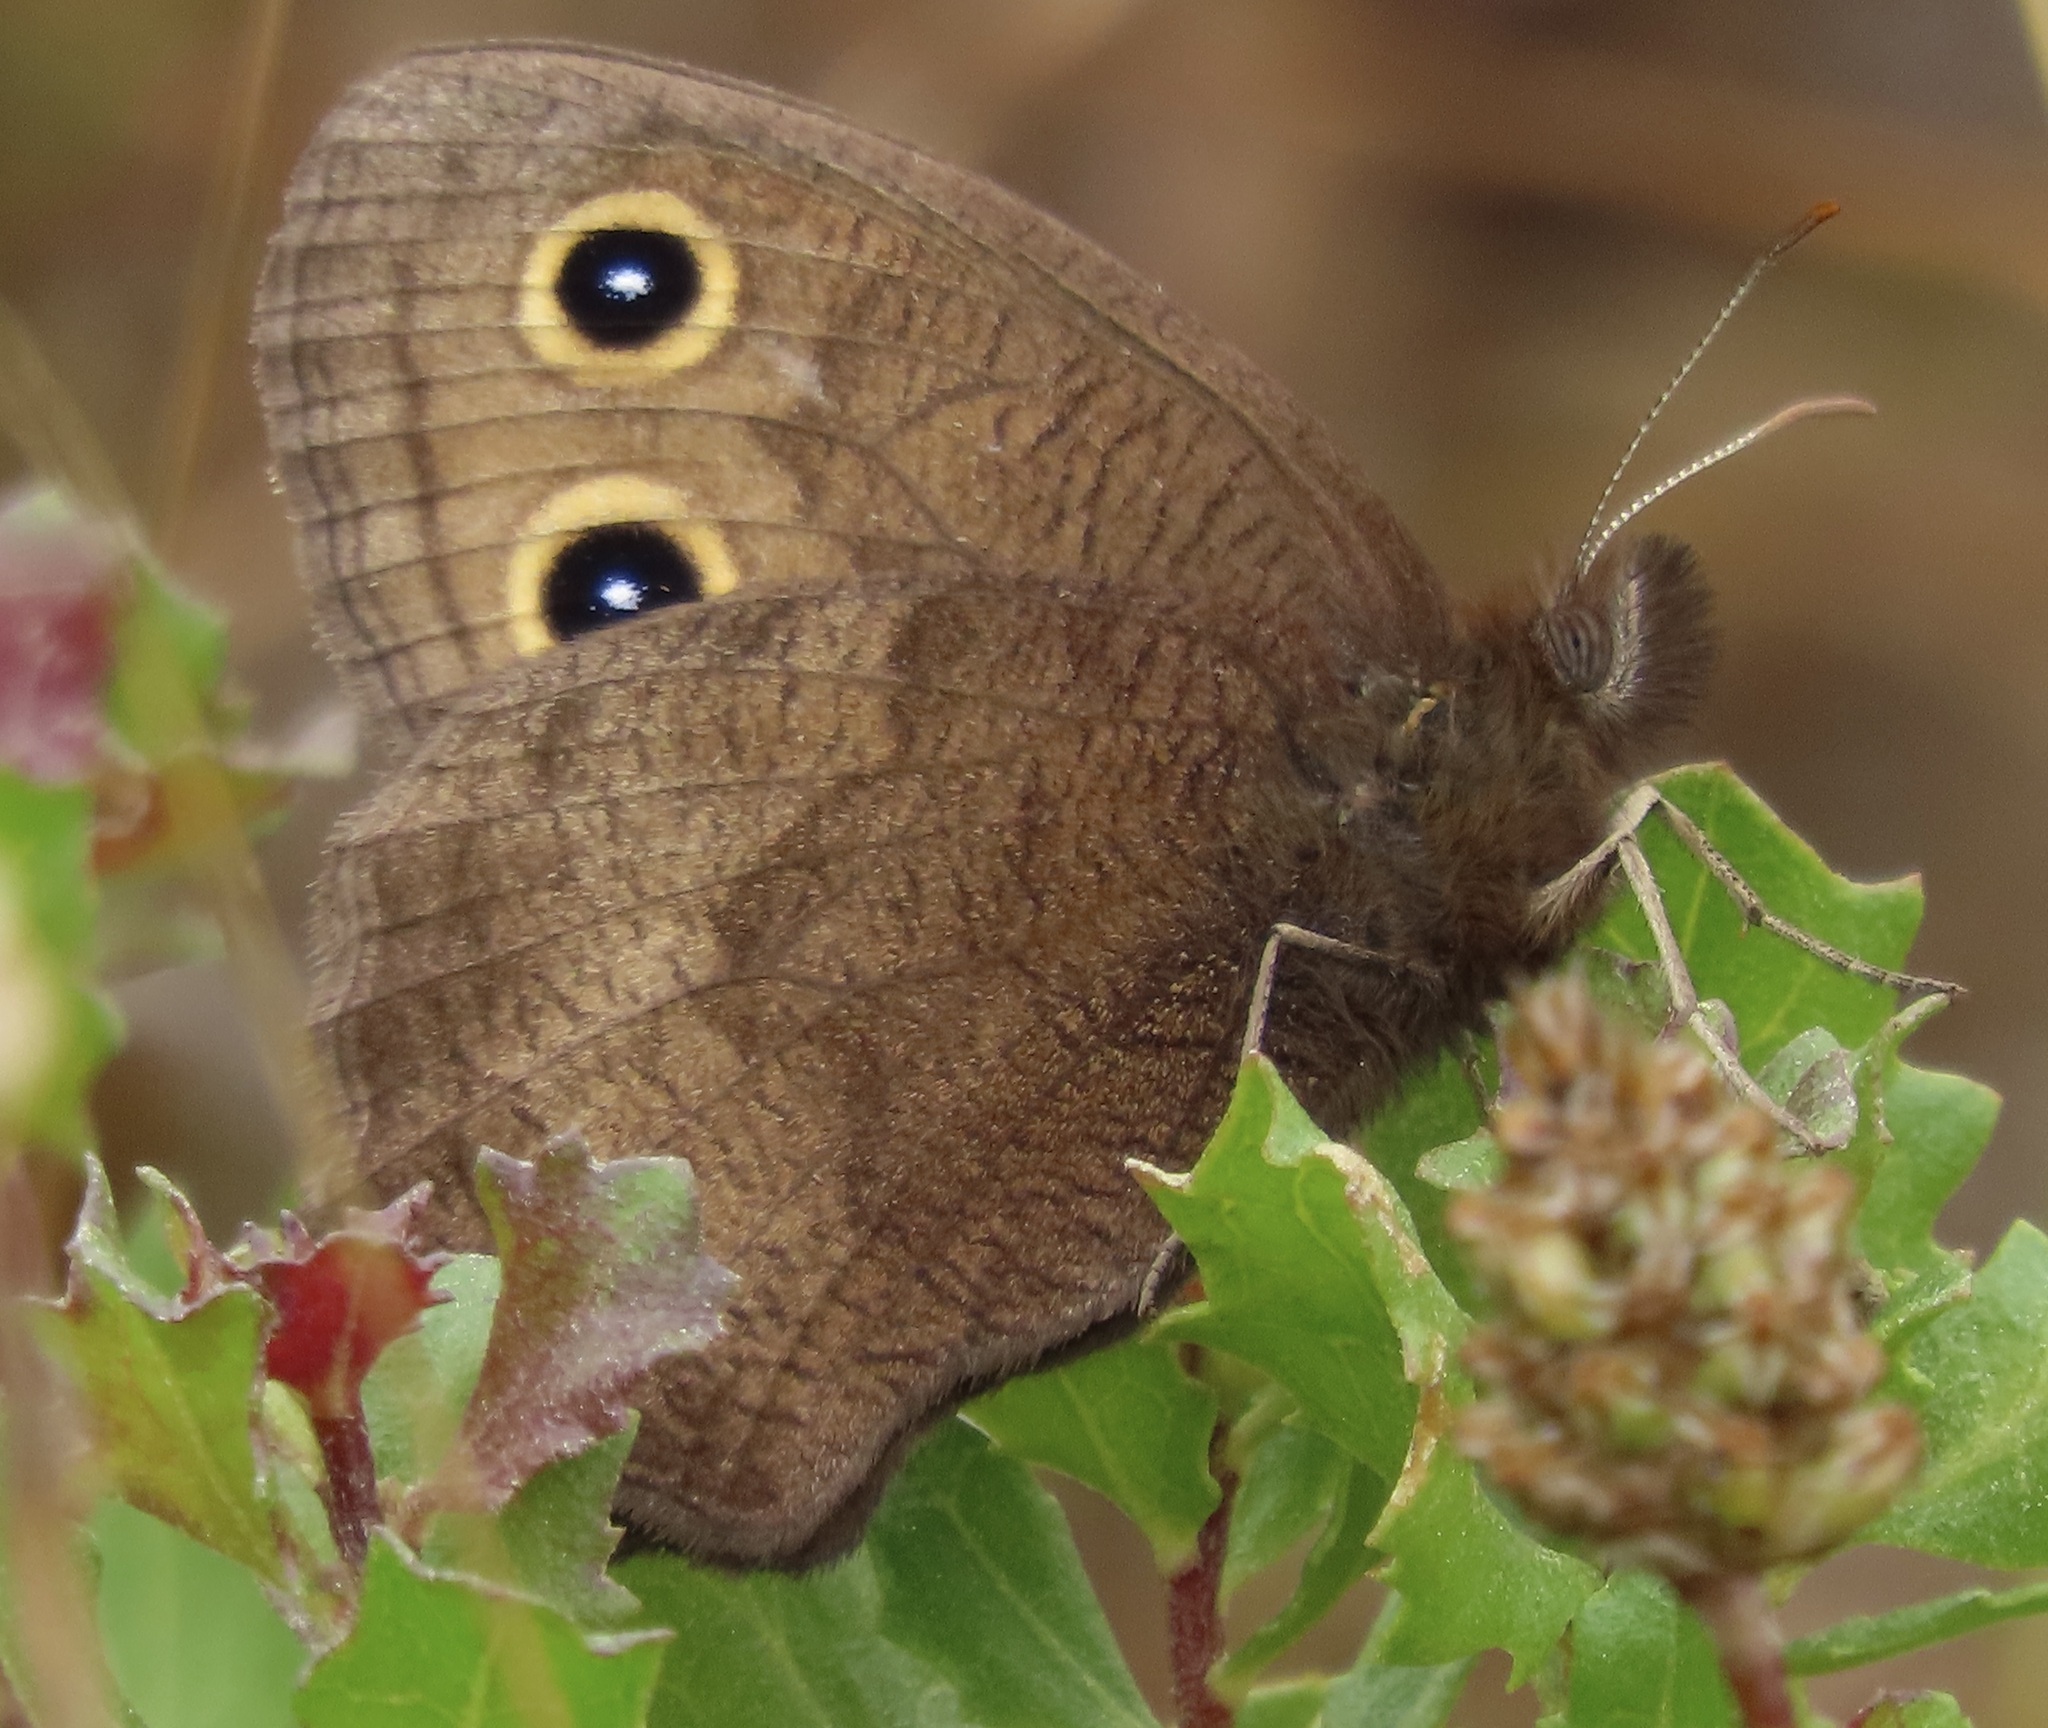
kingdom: Animalia
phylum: Arthropoda
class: Insecta
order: Lepidoptera
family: Nymphalidae
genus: Cercyonis
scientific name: Cercyonis pegala
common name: Common wood-nymph
